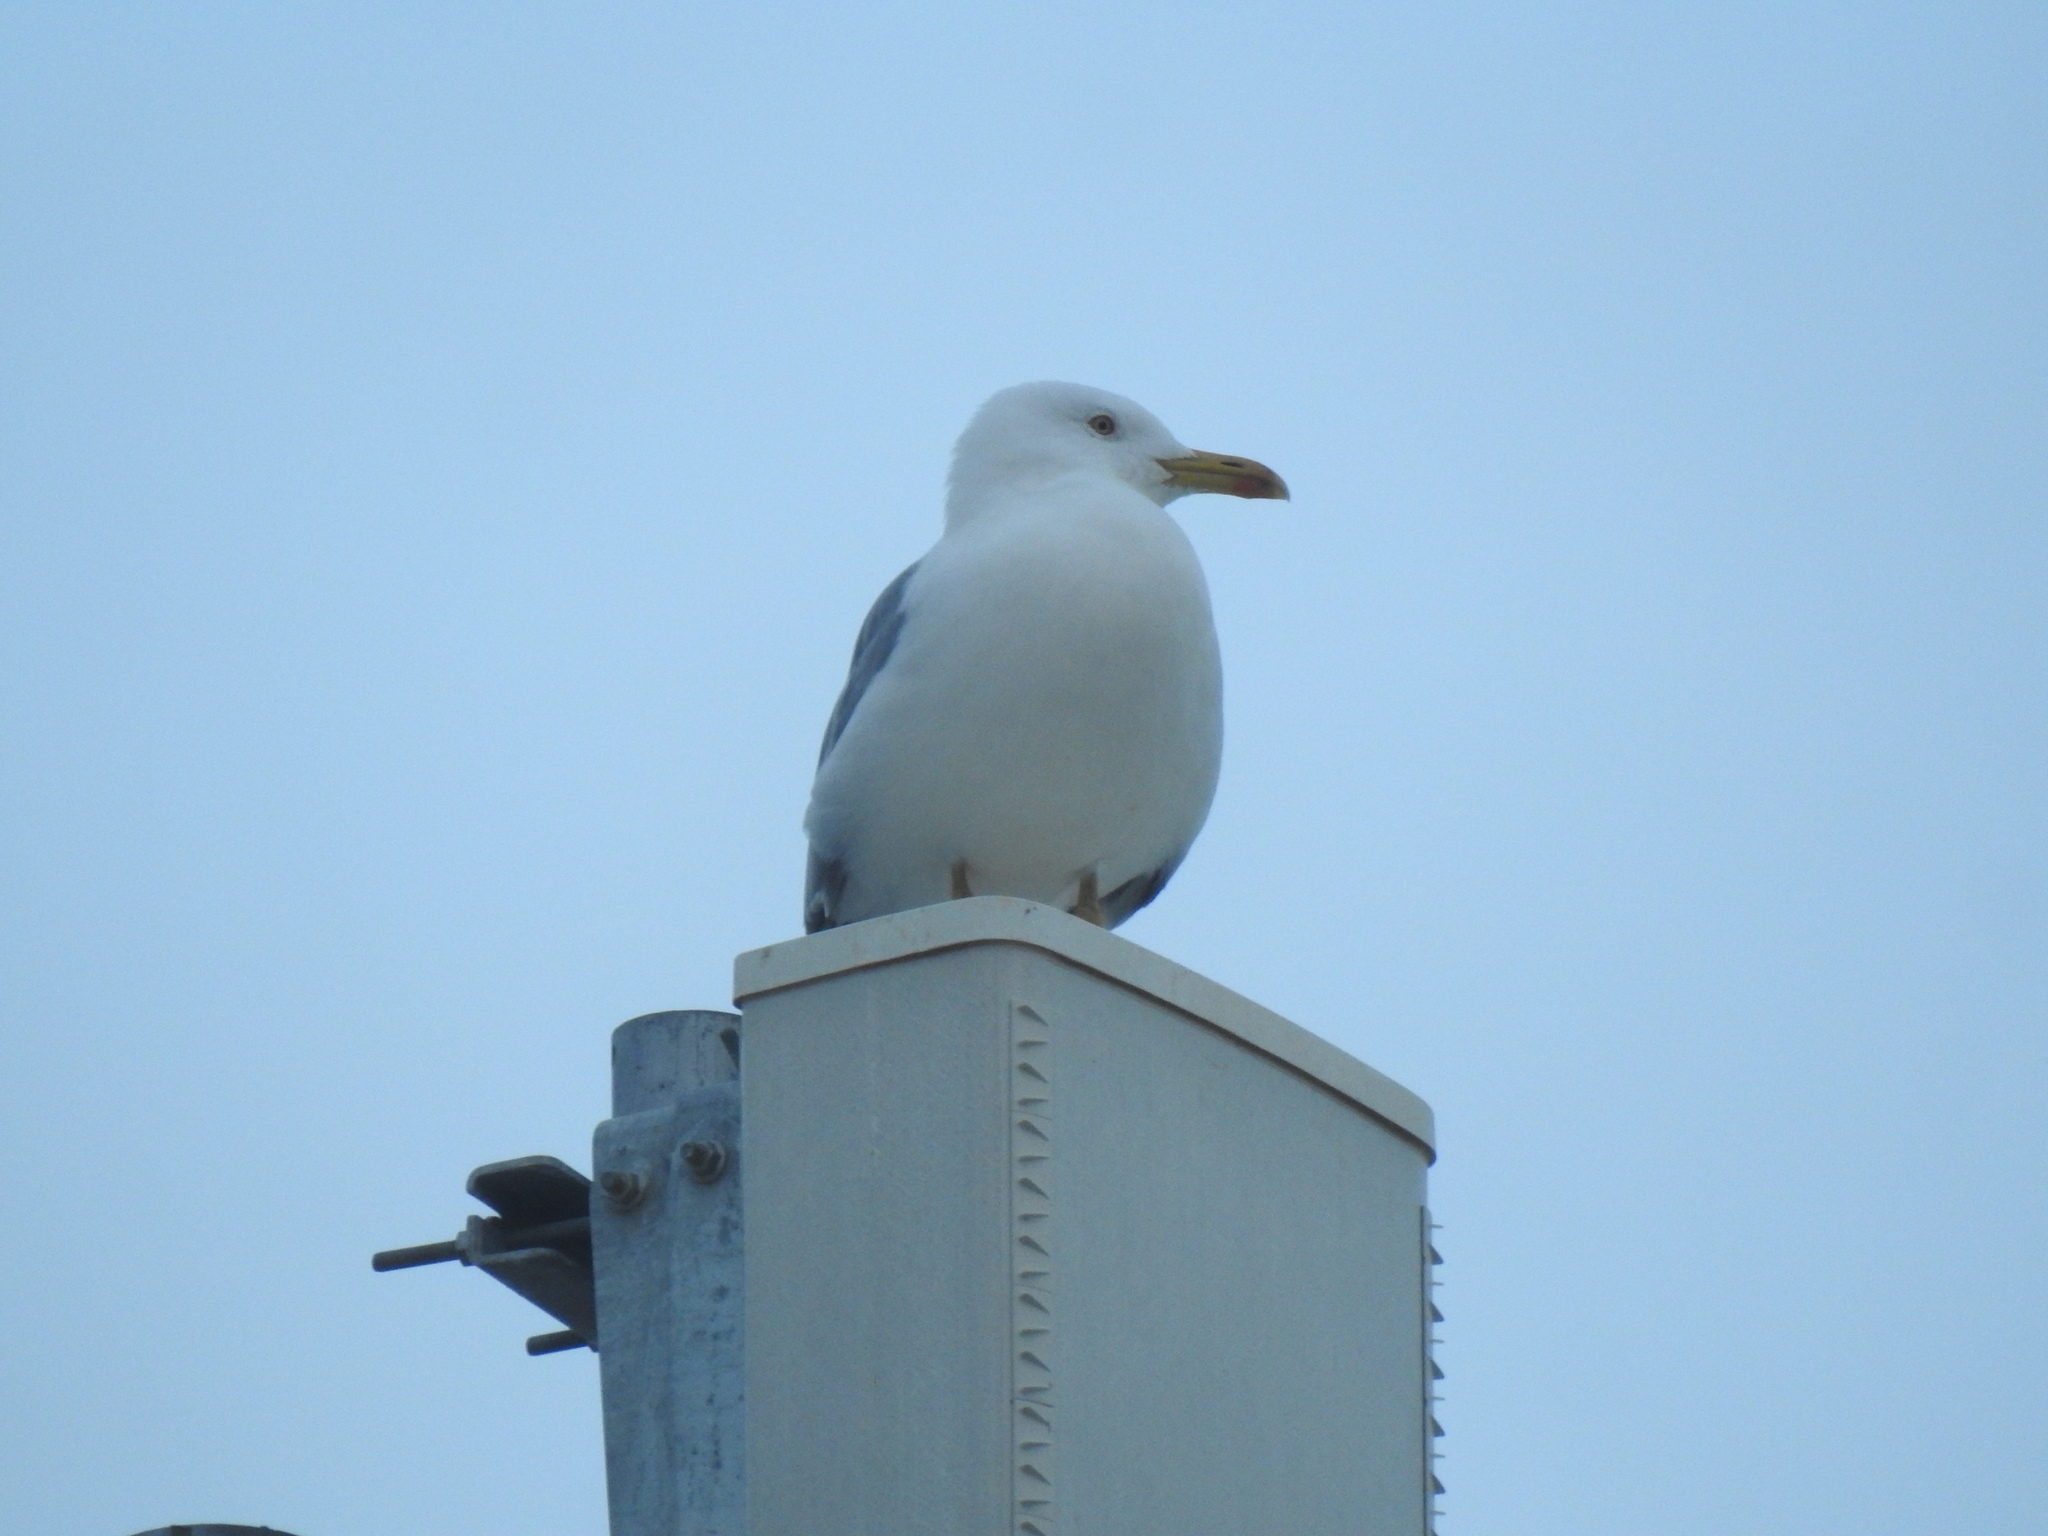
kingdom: Animalia
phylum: Chordata
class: Aves
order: Charadriiformes
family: Laridae
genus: Larus
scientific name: Larus michahellis
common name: Yellow-legged gull
